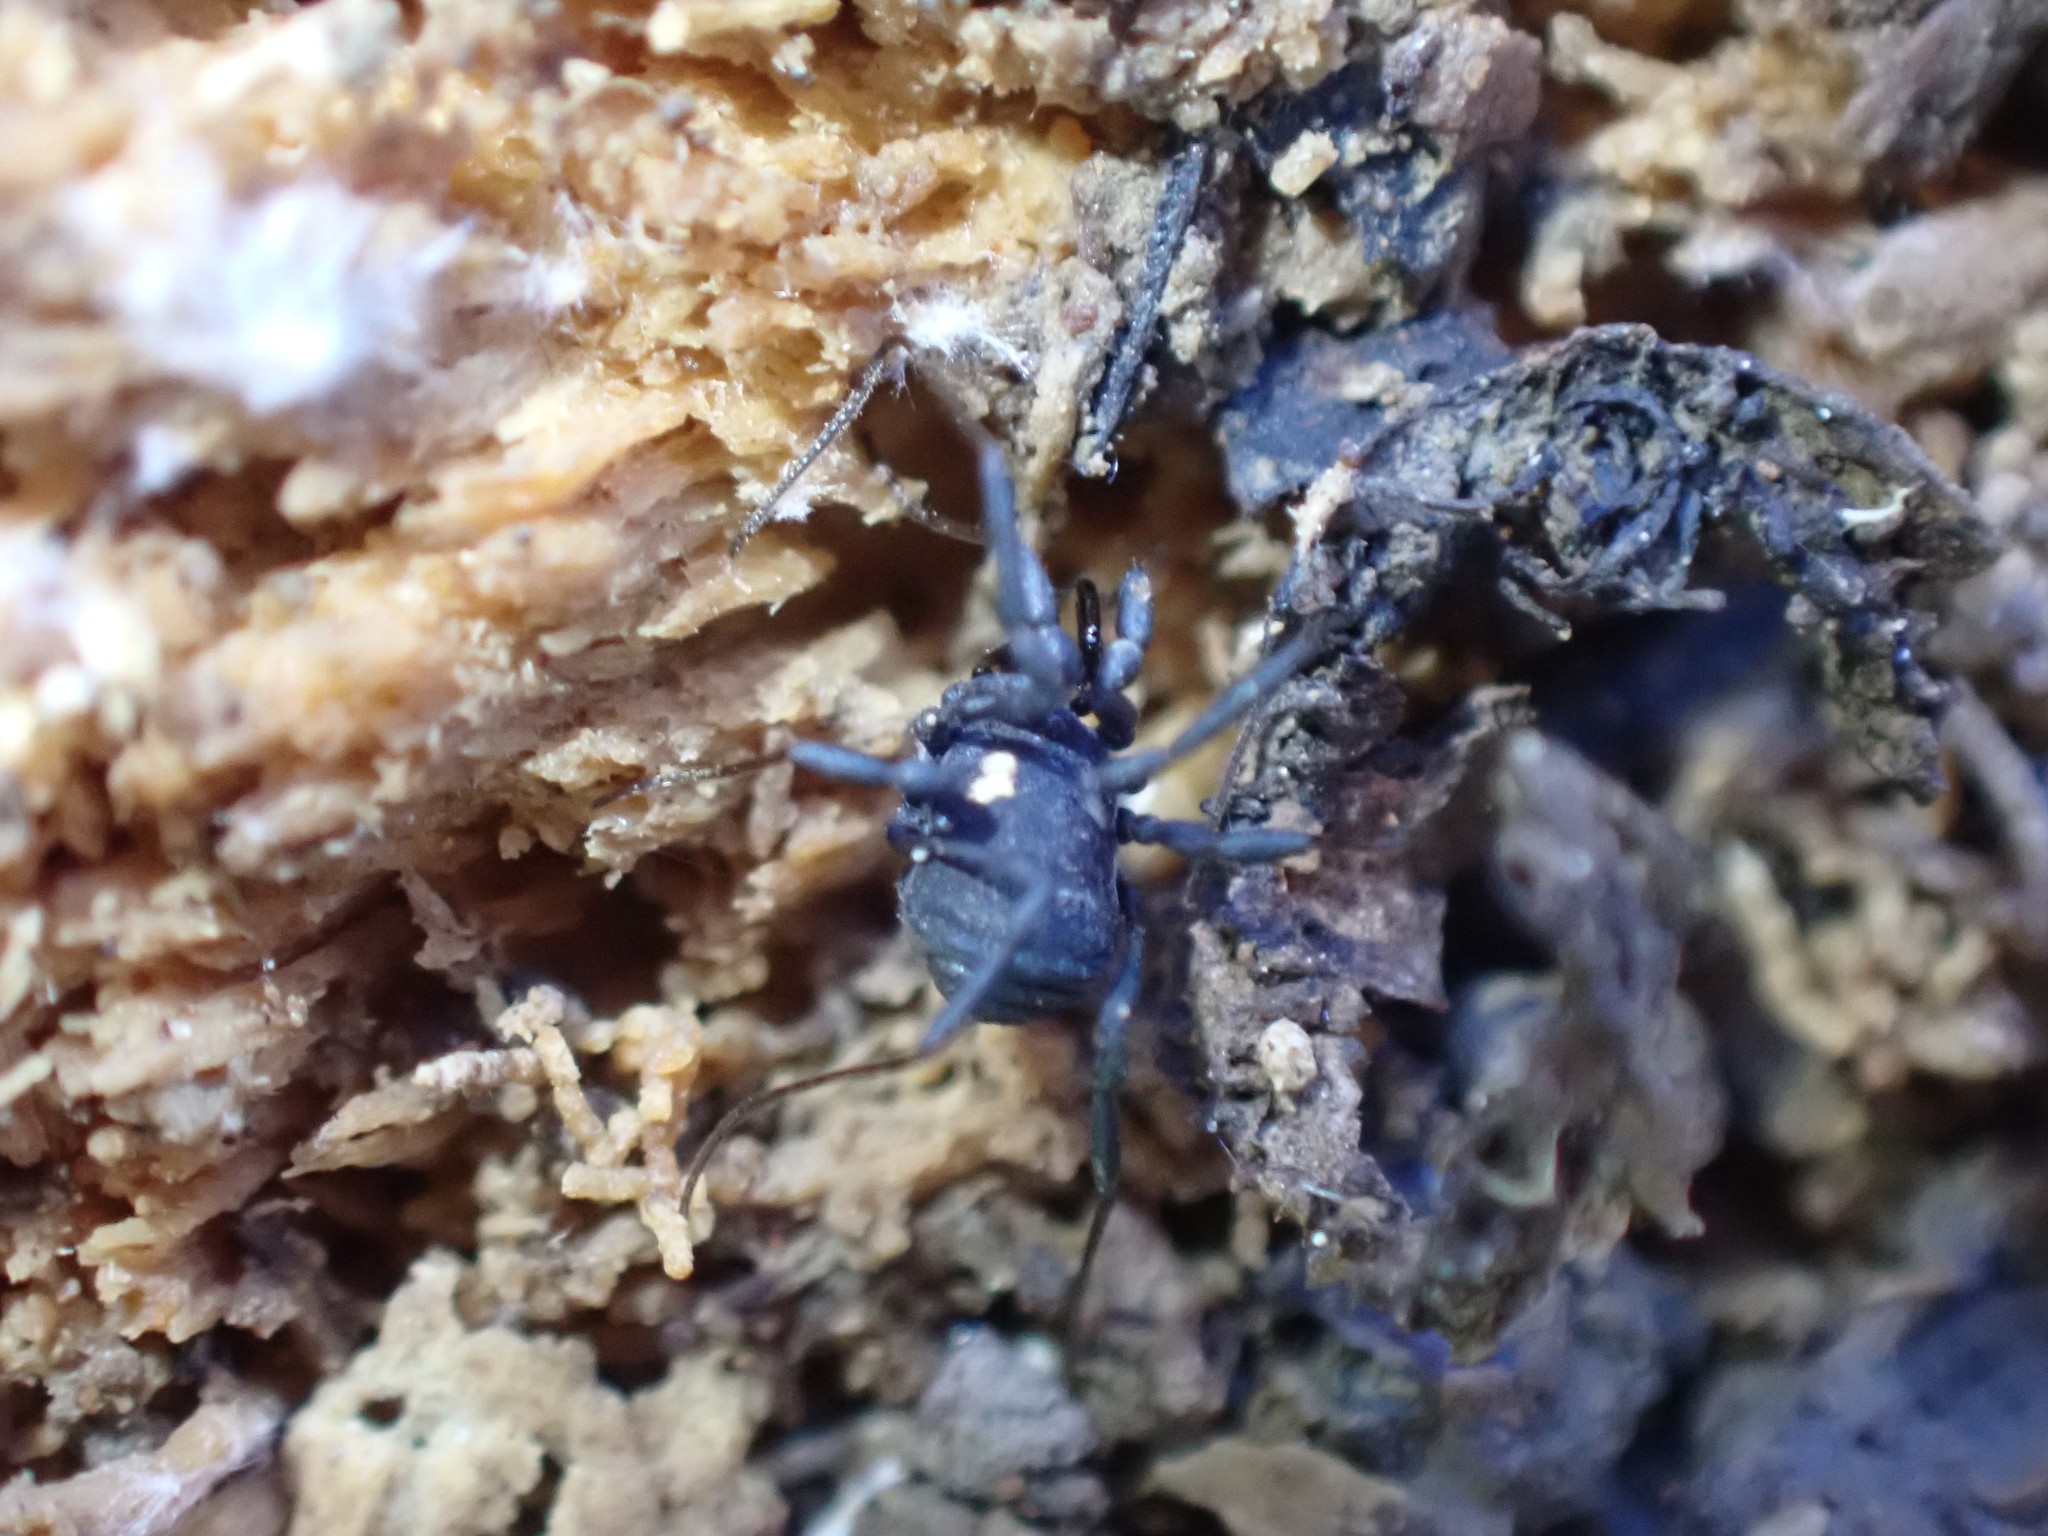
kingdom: Animalia
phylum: Arthropoda
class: Arachnida
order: Opiliones
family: Nemastomatidae
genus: Nemastoma
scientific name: Nemastoma bimaculatum
